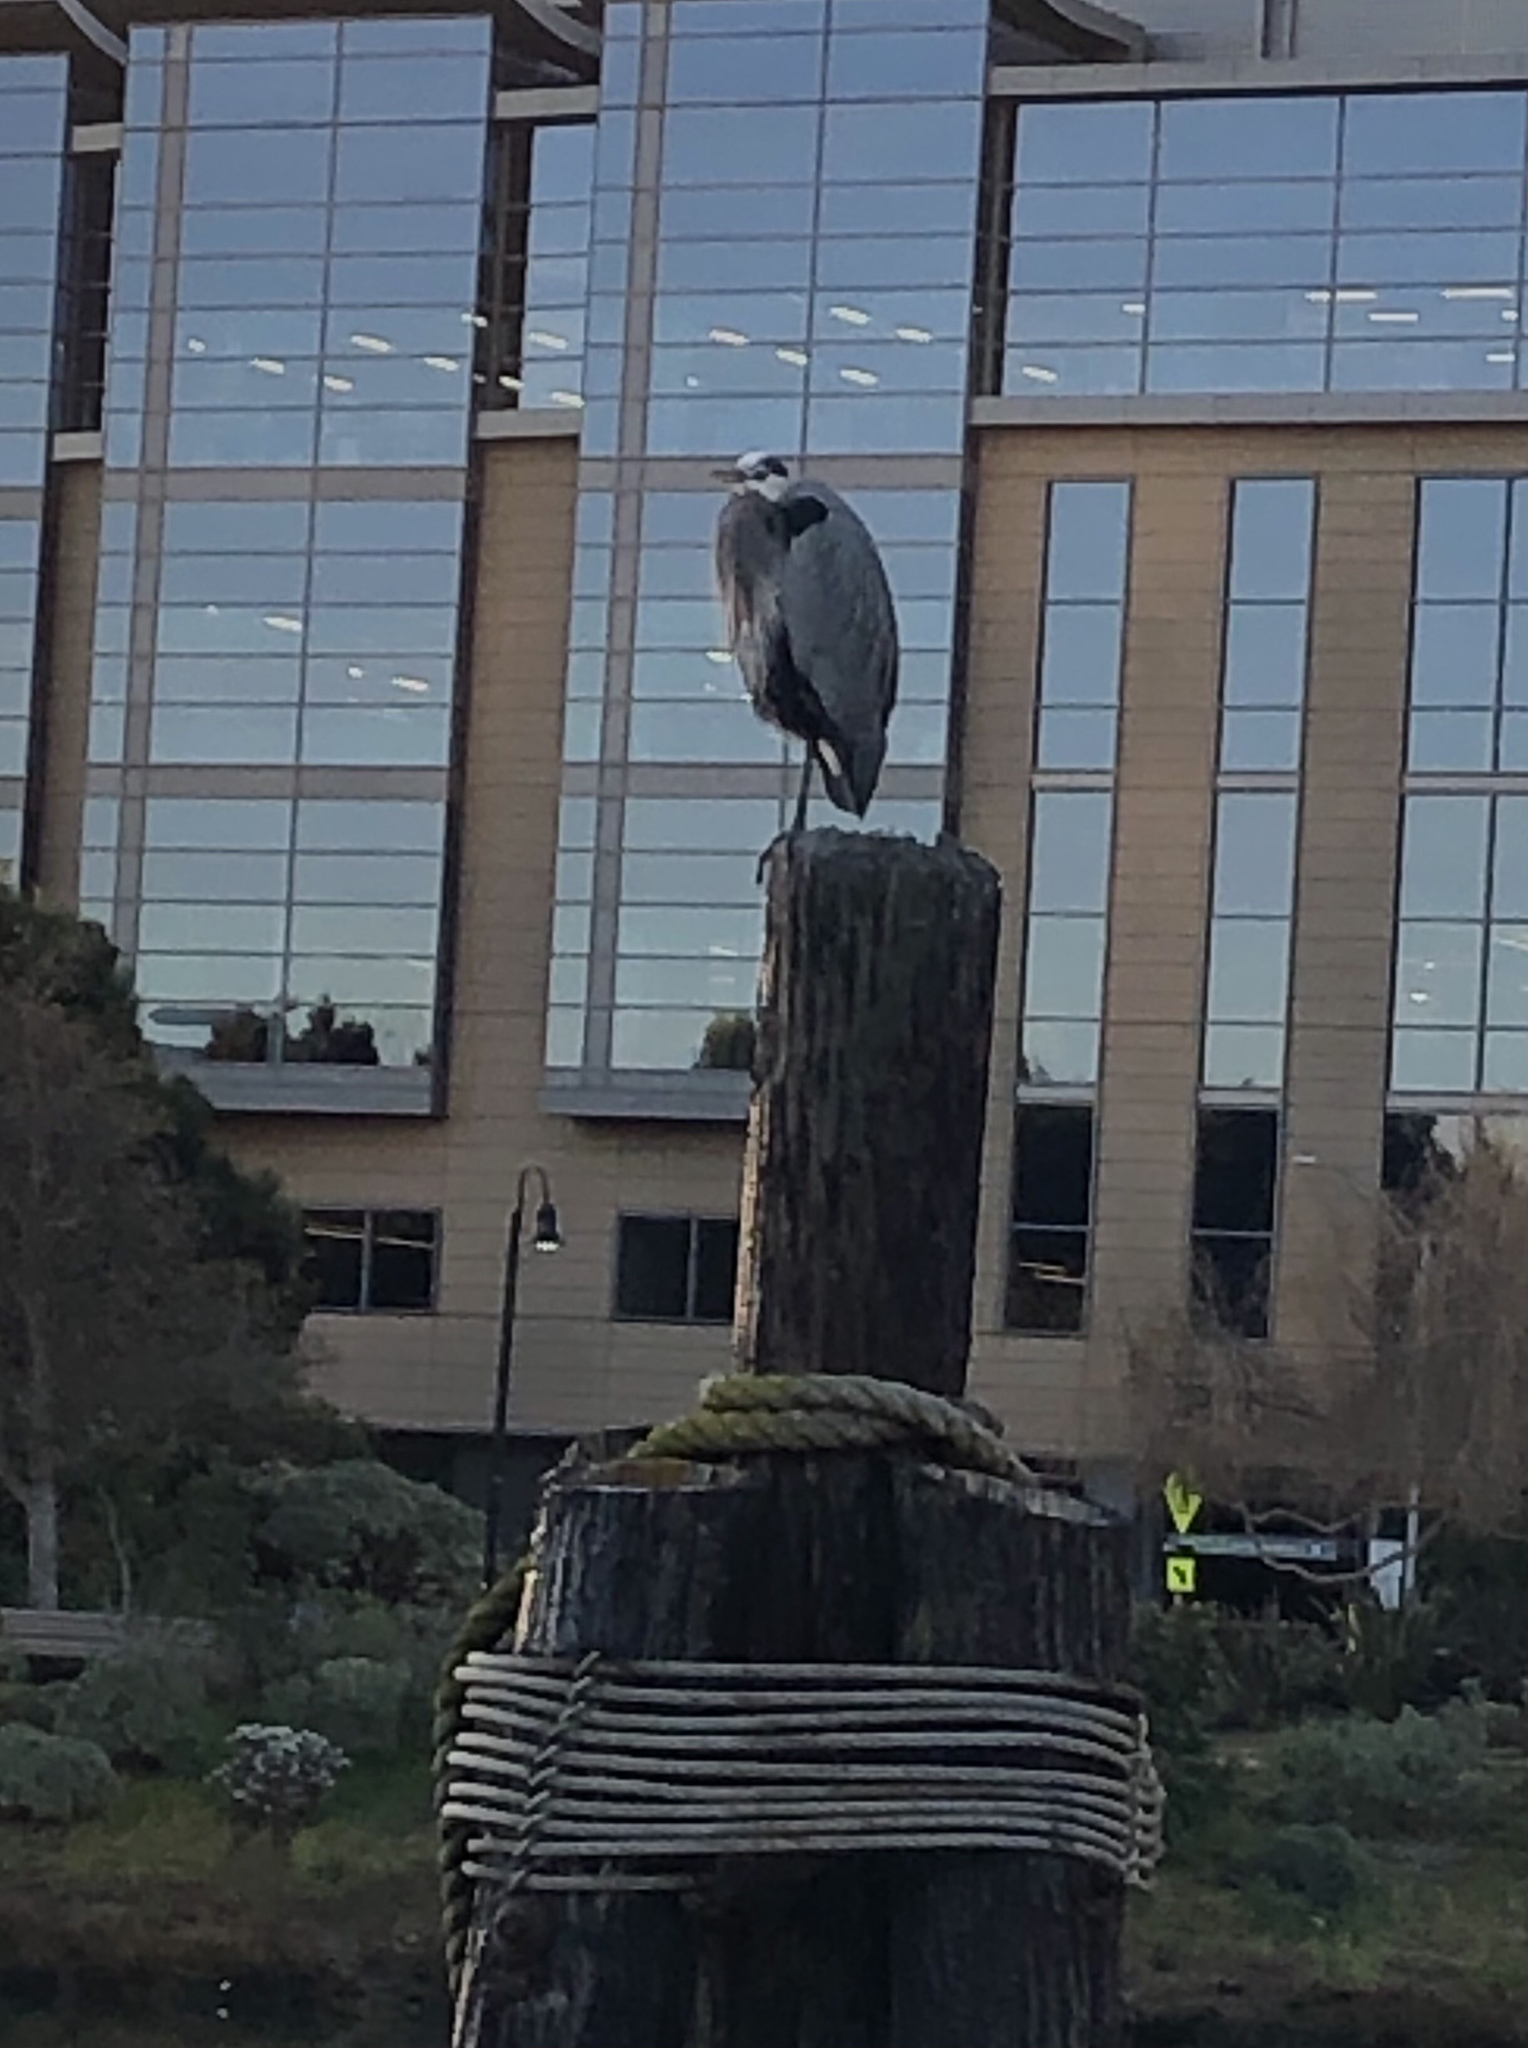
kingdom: Animalia
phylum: Chordata
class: Aves
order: Pelecaniformes
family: Ardeidae
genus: Ardea
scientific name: Ardea herodias
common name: Great blue heron
